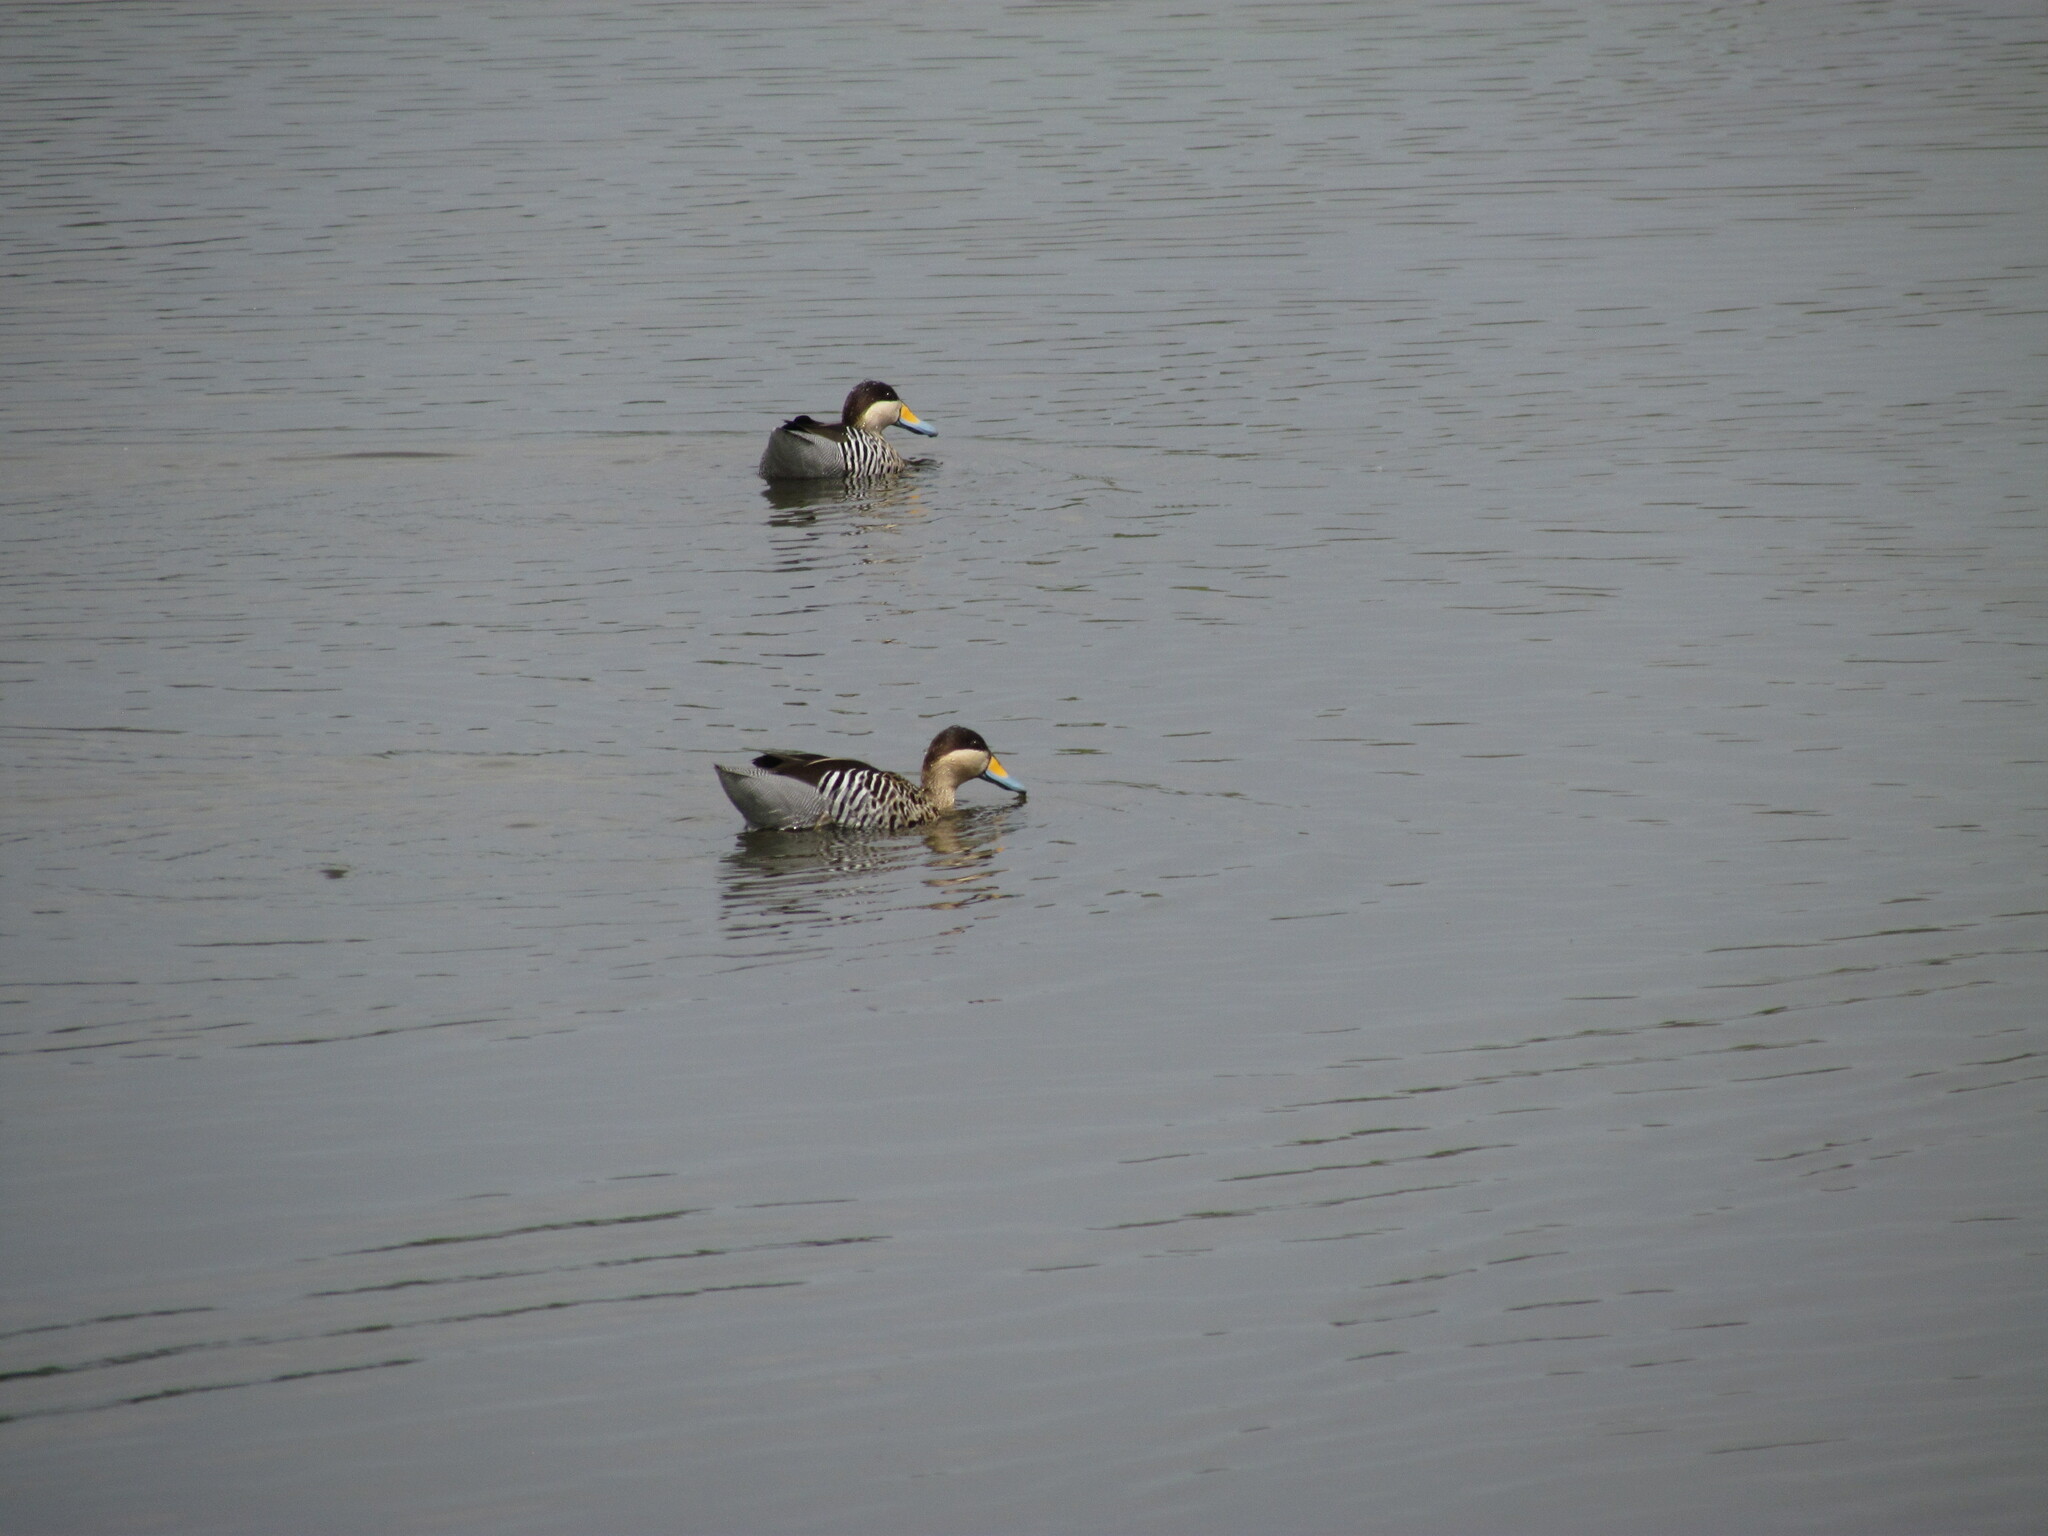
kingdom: Animalia
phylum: Chordata
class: Aves
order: Anseriformes
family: Anatidae
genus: Spatula
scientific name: Spatula versicolor
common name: Silver teal
